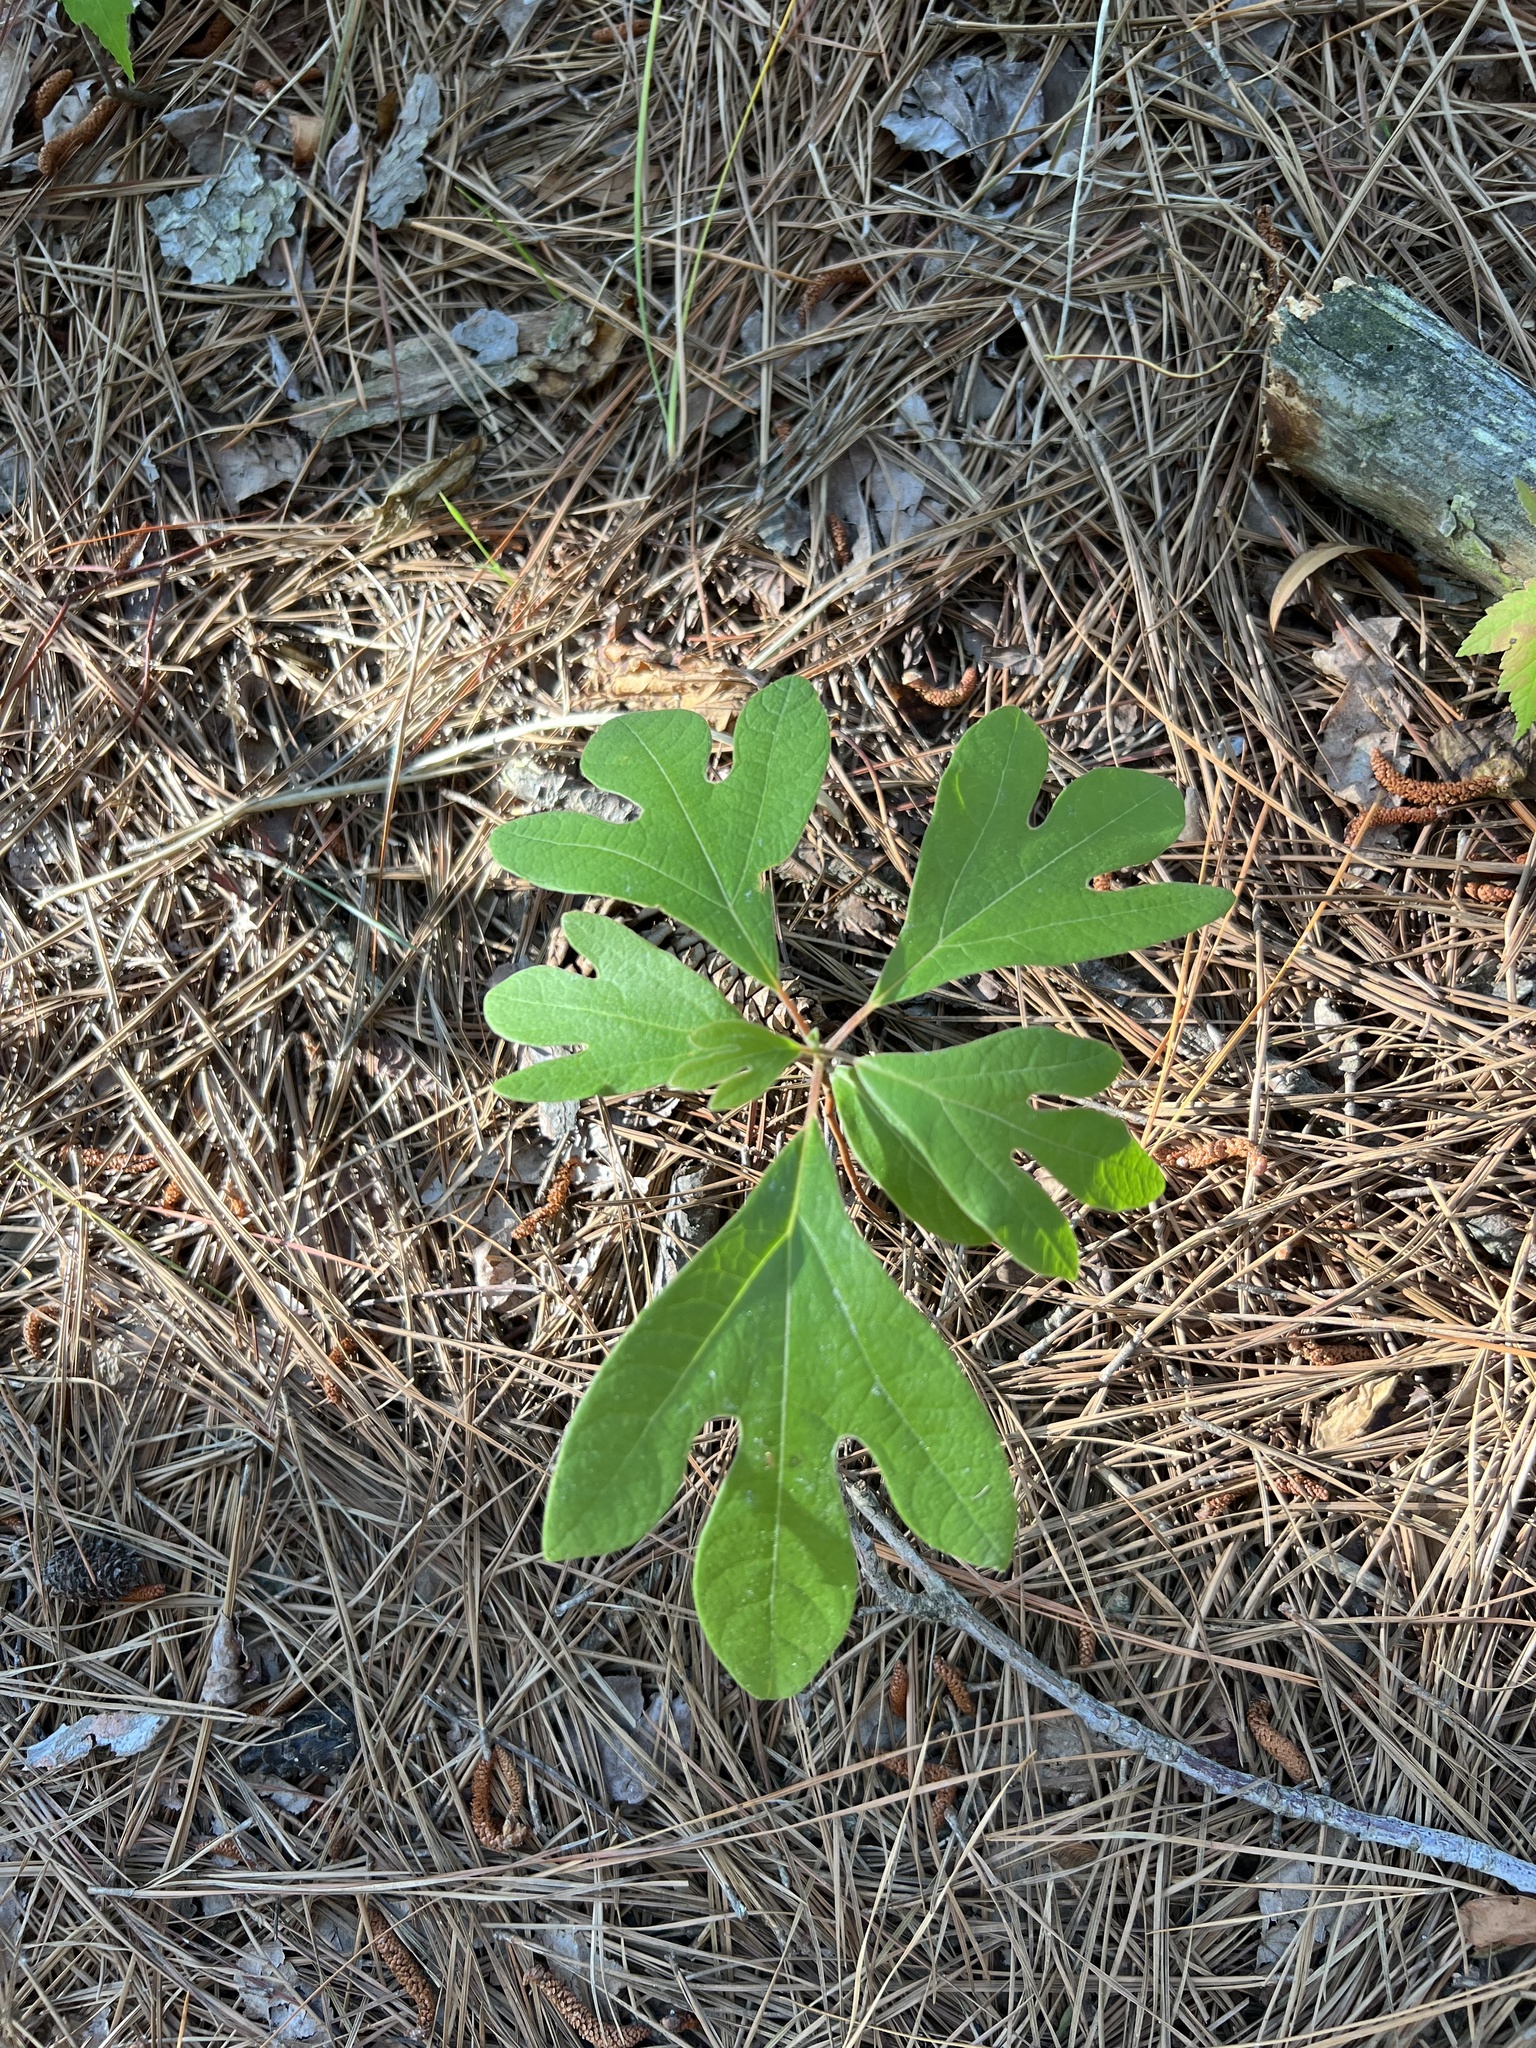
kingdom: Plantae
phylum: Tracheophyta
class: Magnoliopsida
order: Laurales
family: Lauraceae
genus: Sassafras
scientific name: Sassafras albidum
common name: Sassafras
